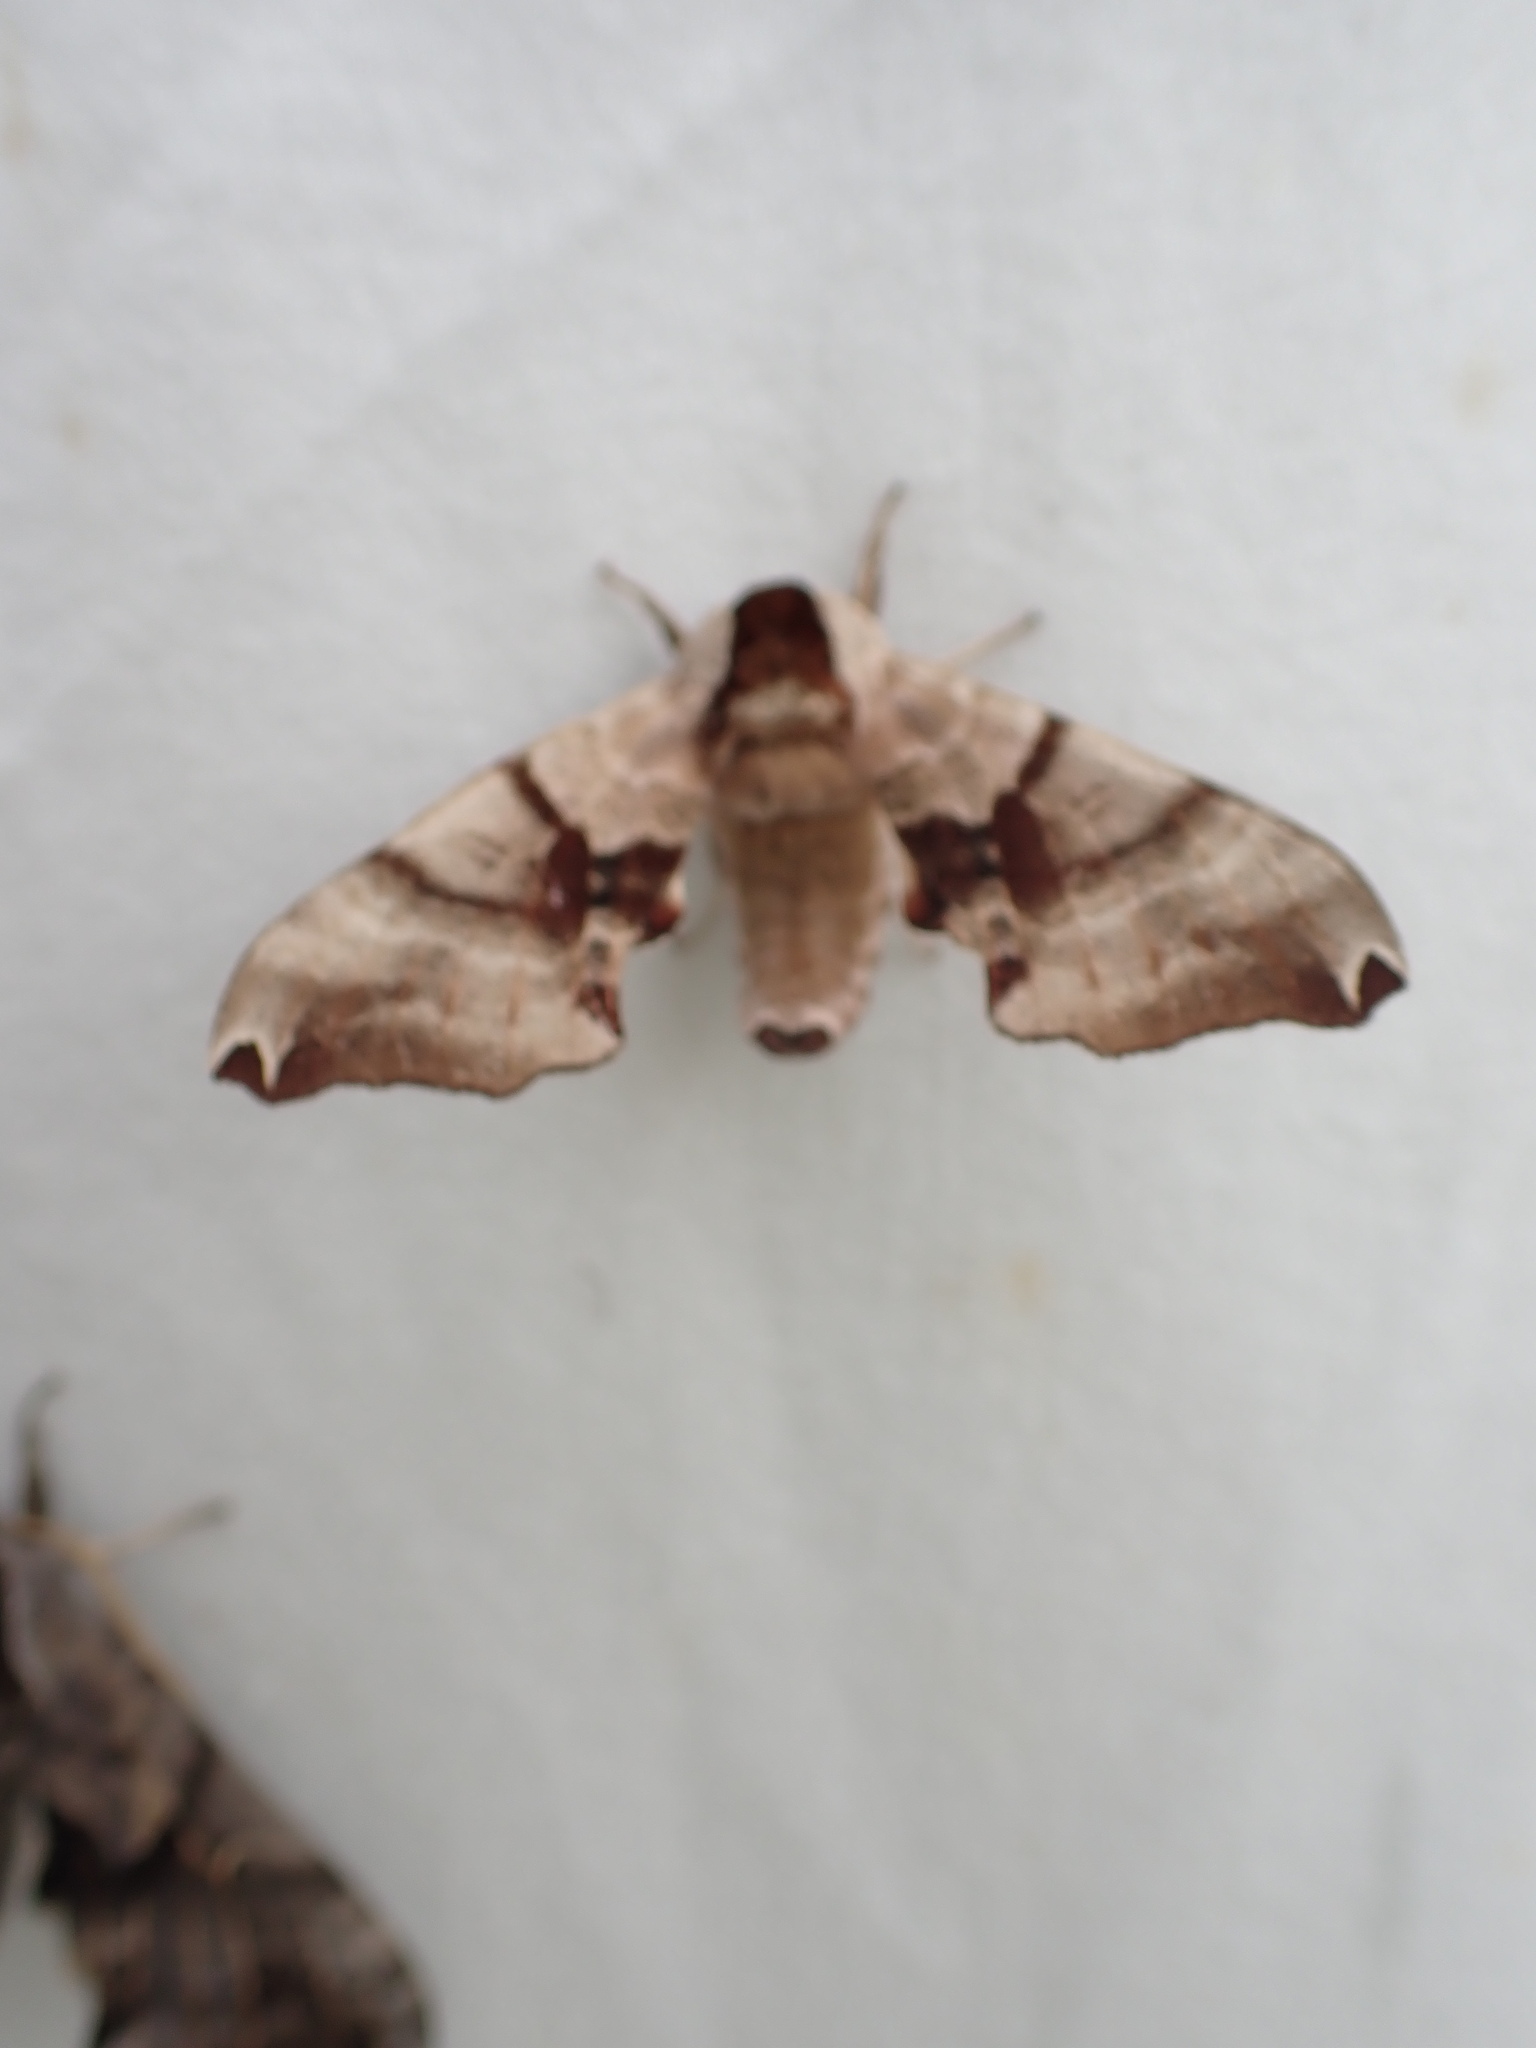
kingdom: Animalia
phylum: Arthropoda
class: Insecta
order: Lepidoptera
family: Sphingidae
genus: Smerinthus
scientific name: Smerinthus jamaicensis
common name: Twin spotted sphinx
